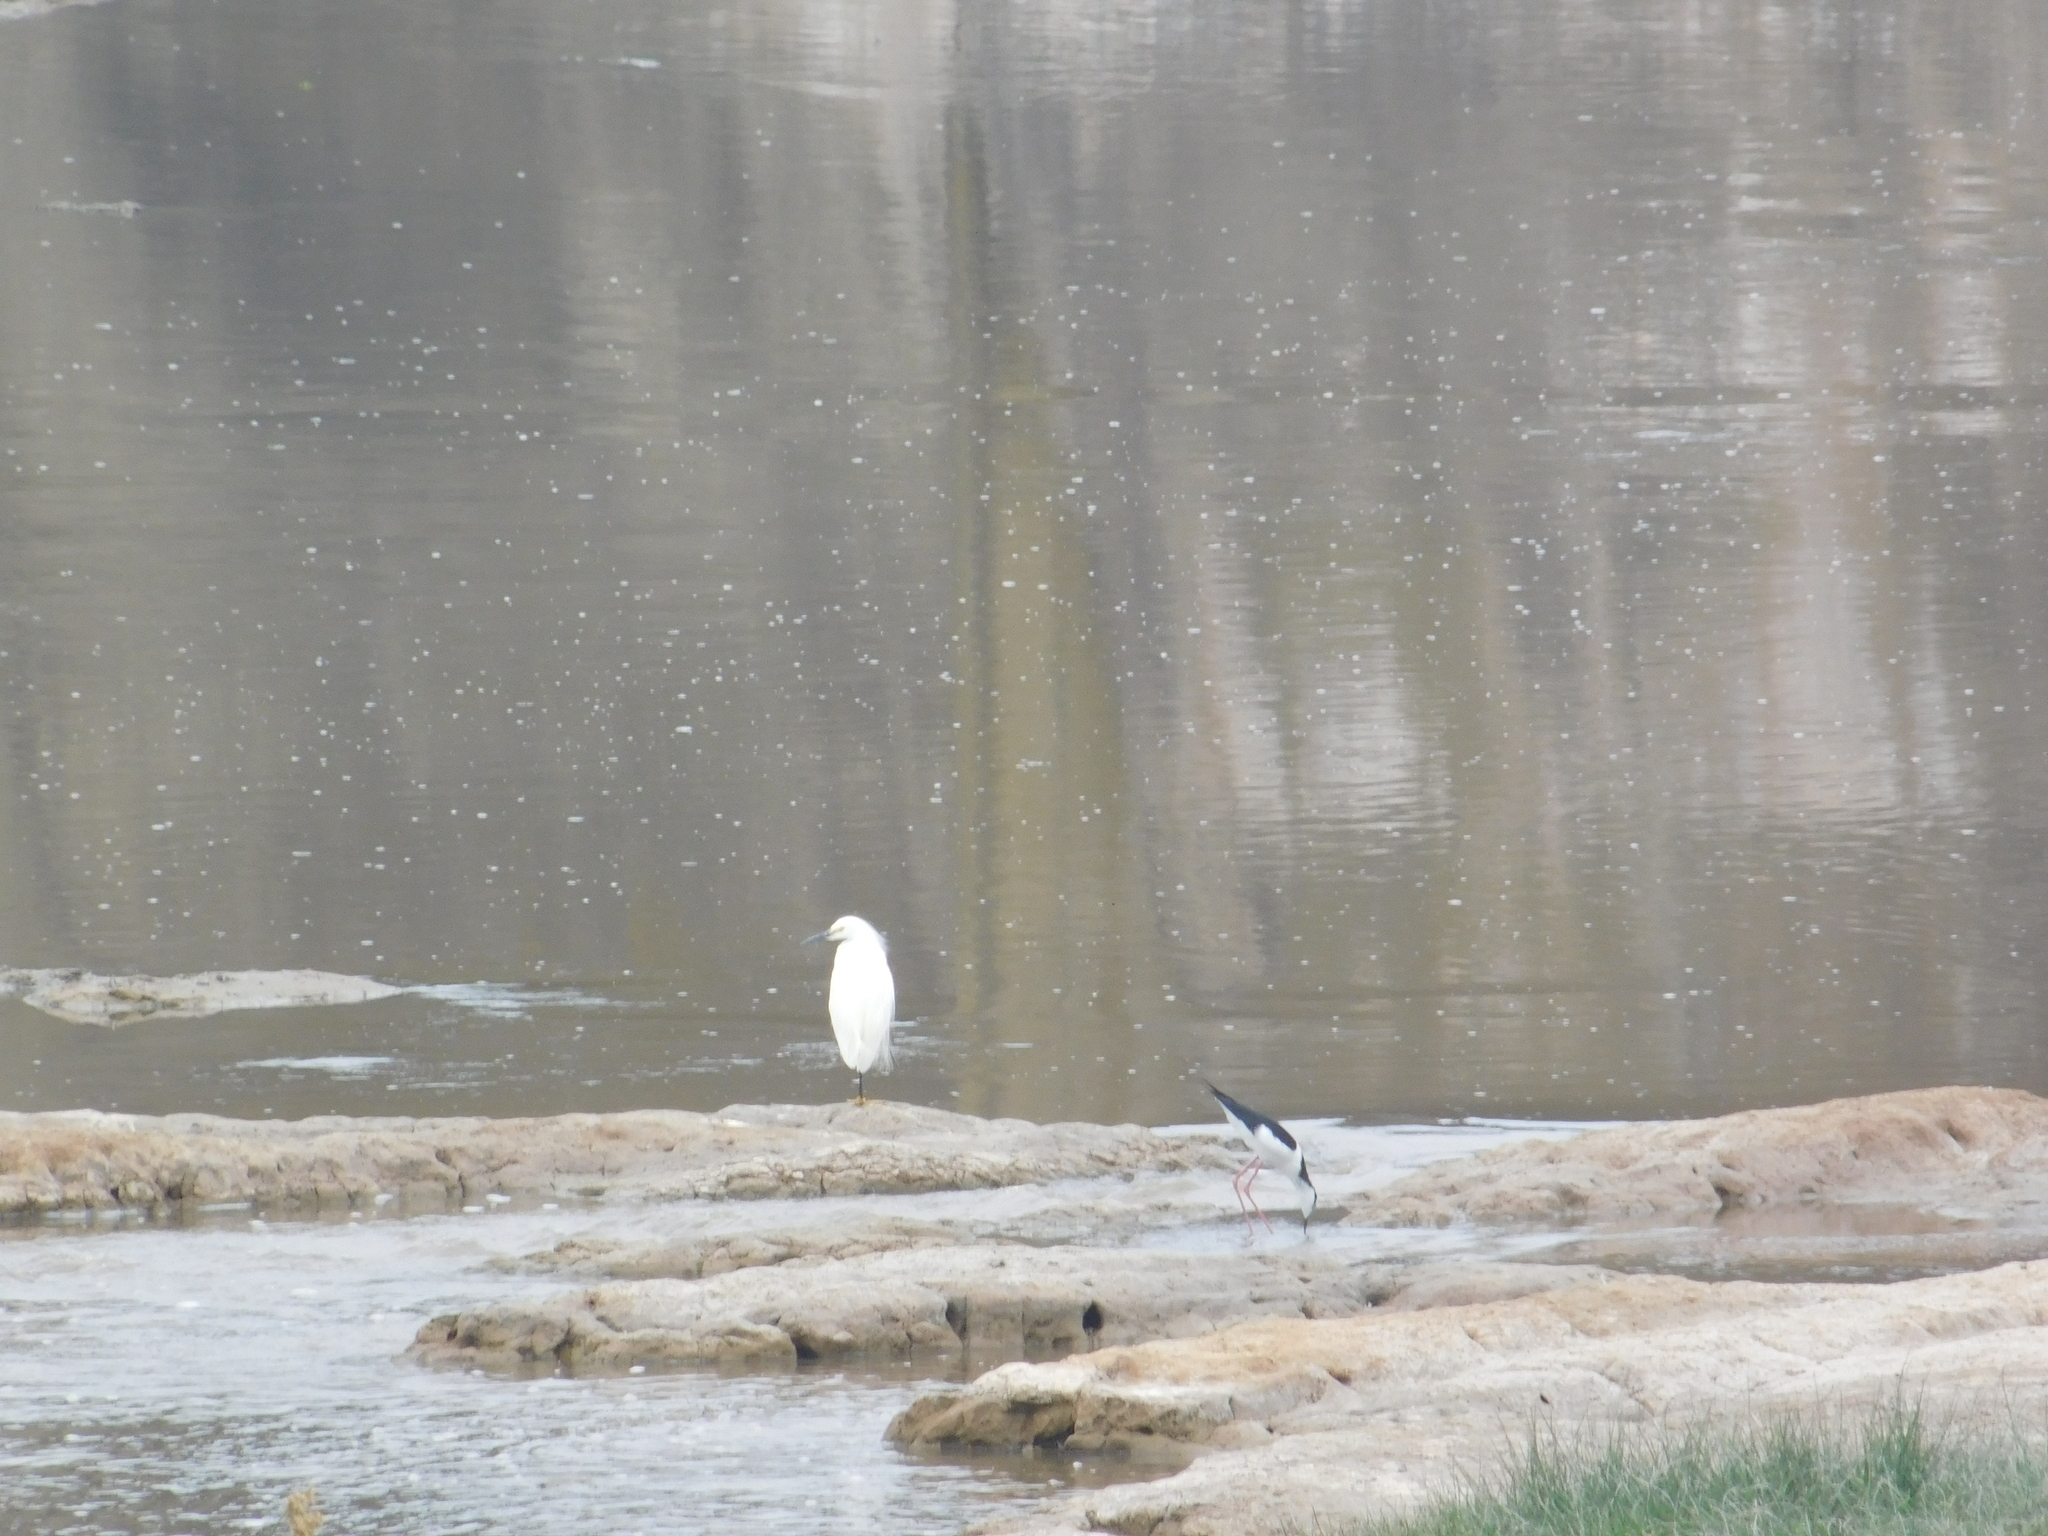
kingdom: Animalia
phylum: Chordata
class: Aves
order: Pelecaniformes
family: Ardeidae
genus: Egretta
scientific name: Egretta thula
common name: Snowy egret
